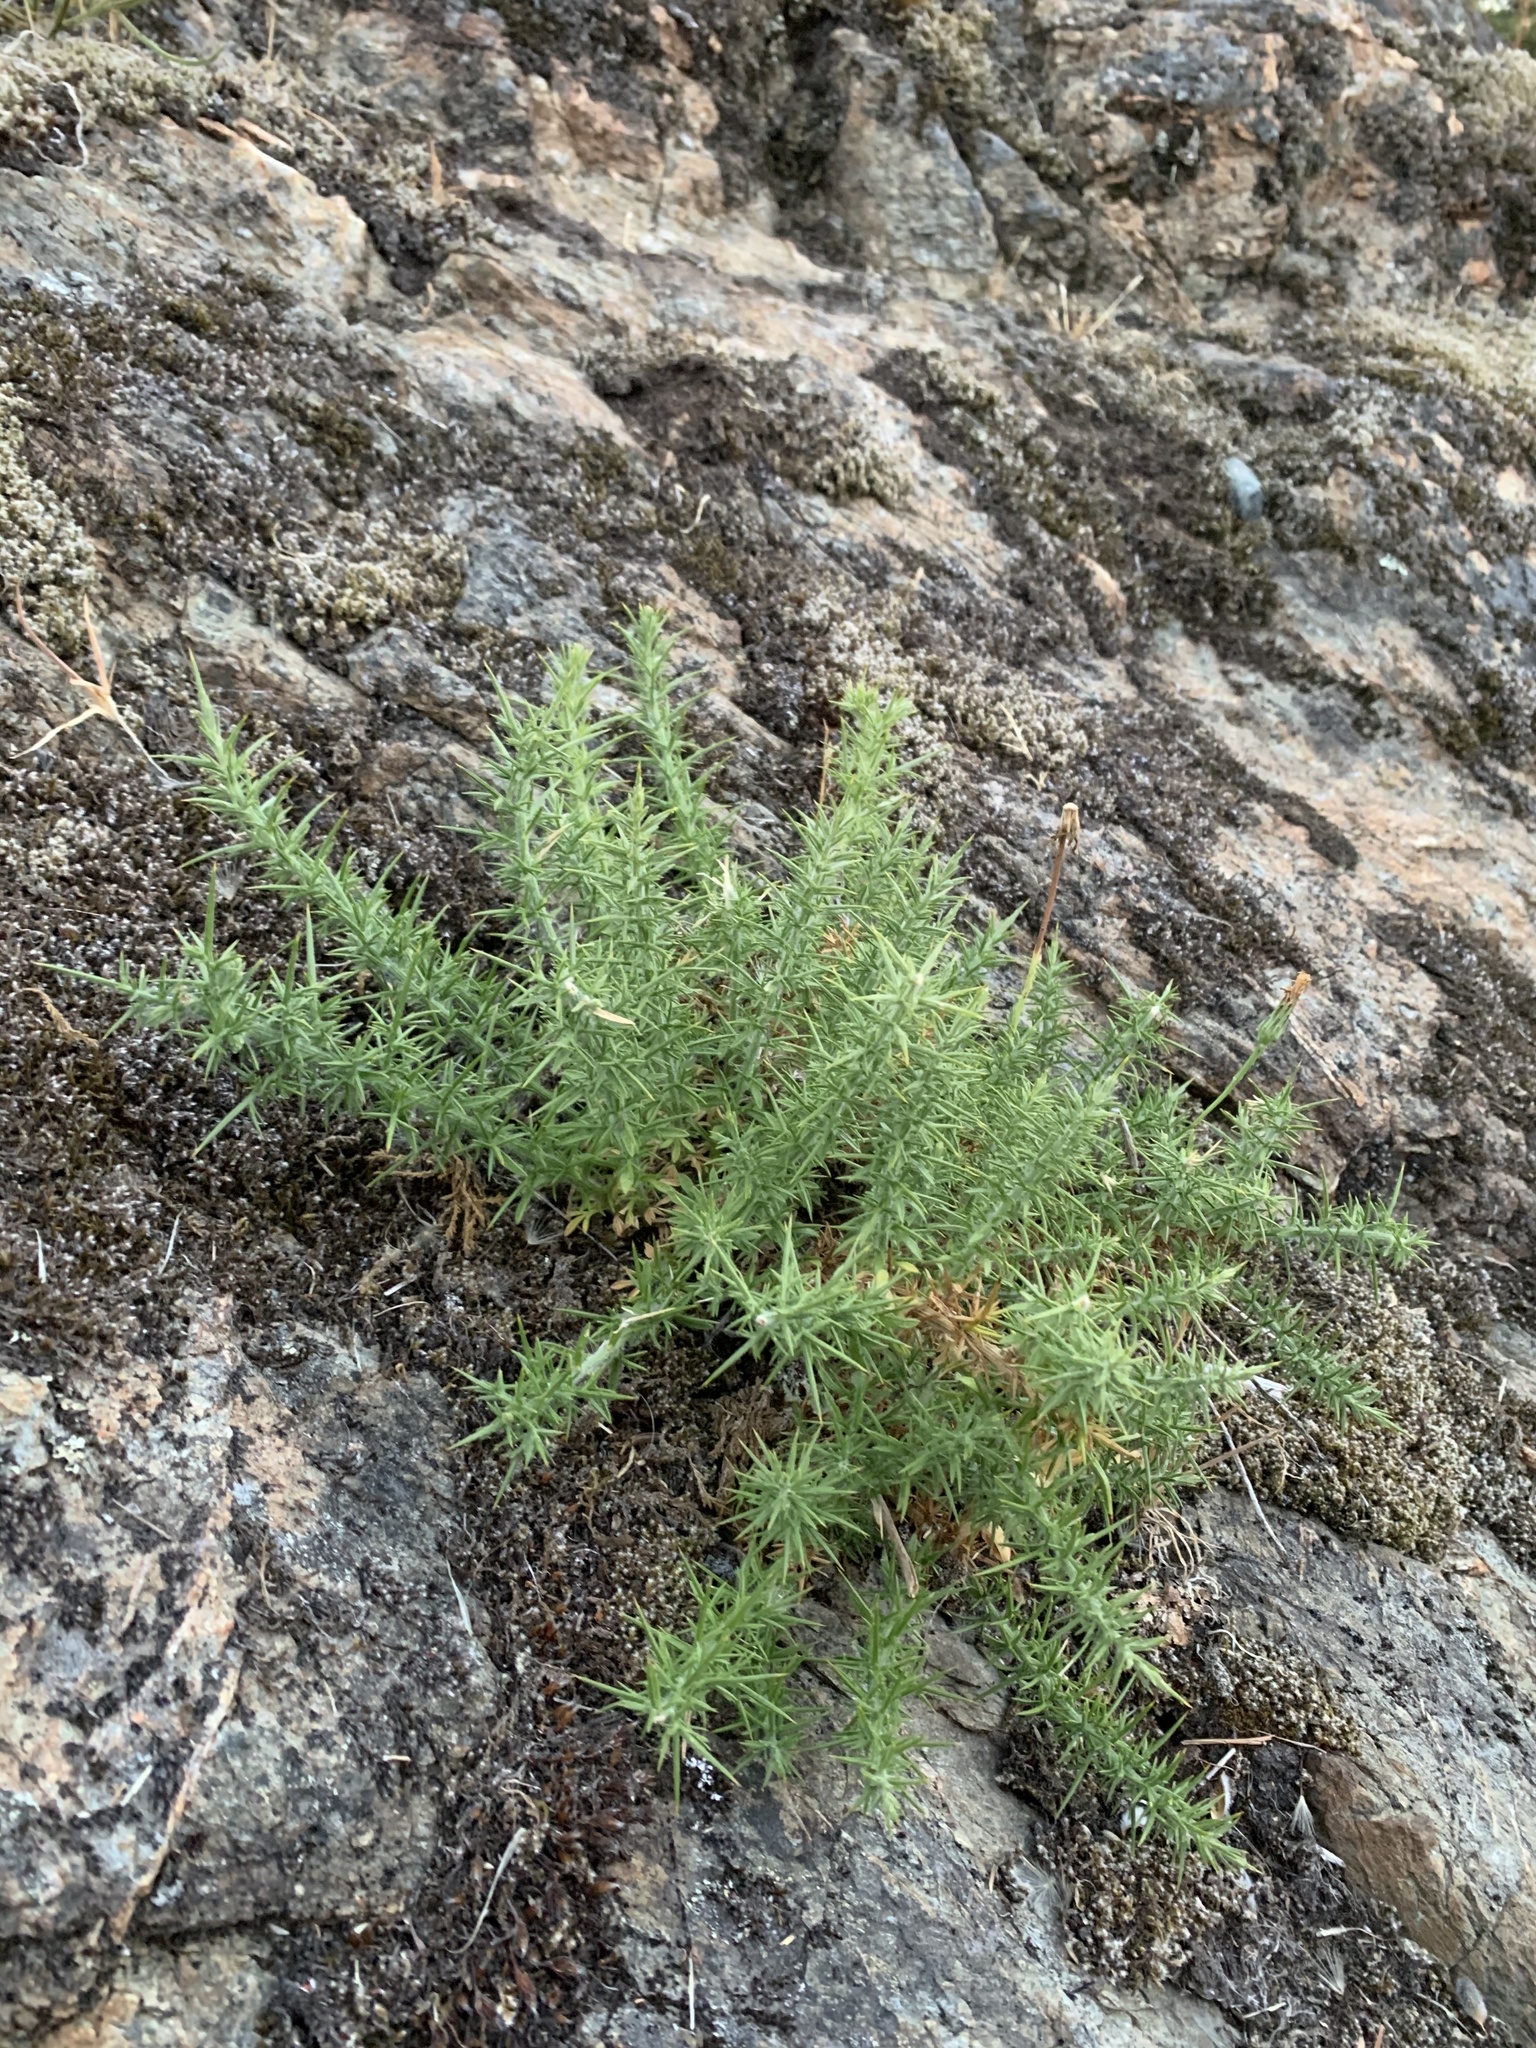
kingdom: Plantae
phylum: Tracheophyta
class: Magnoliopsida
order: Fabales
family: Fabaceae
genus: Ulex
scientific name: Ulex europaeus
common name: Common gorse
